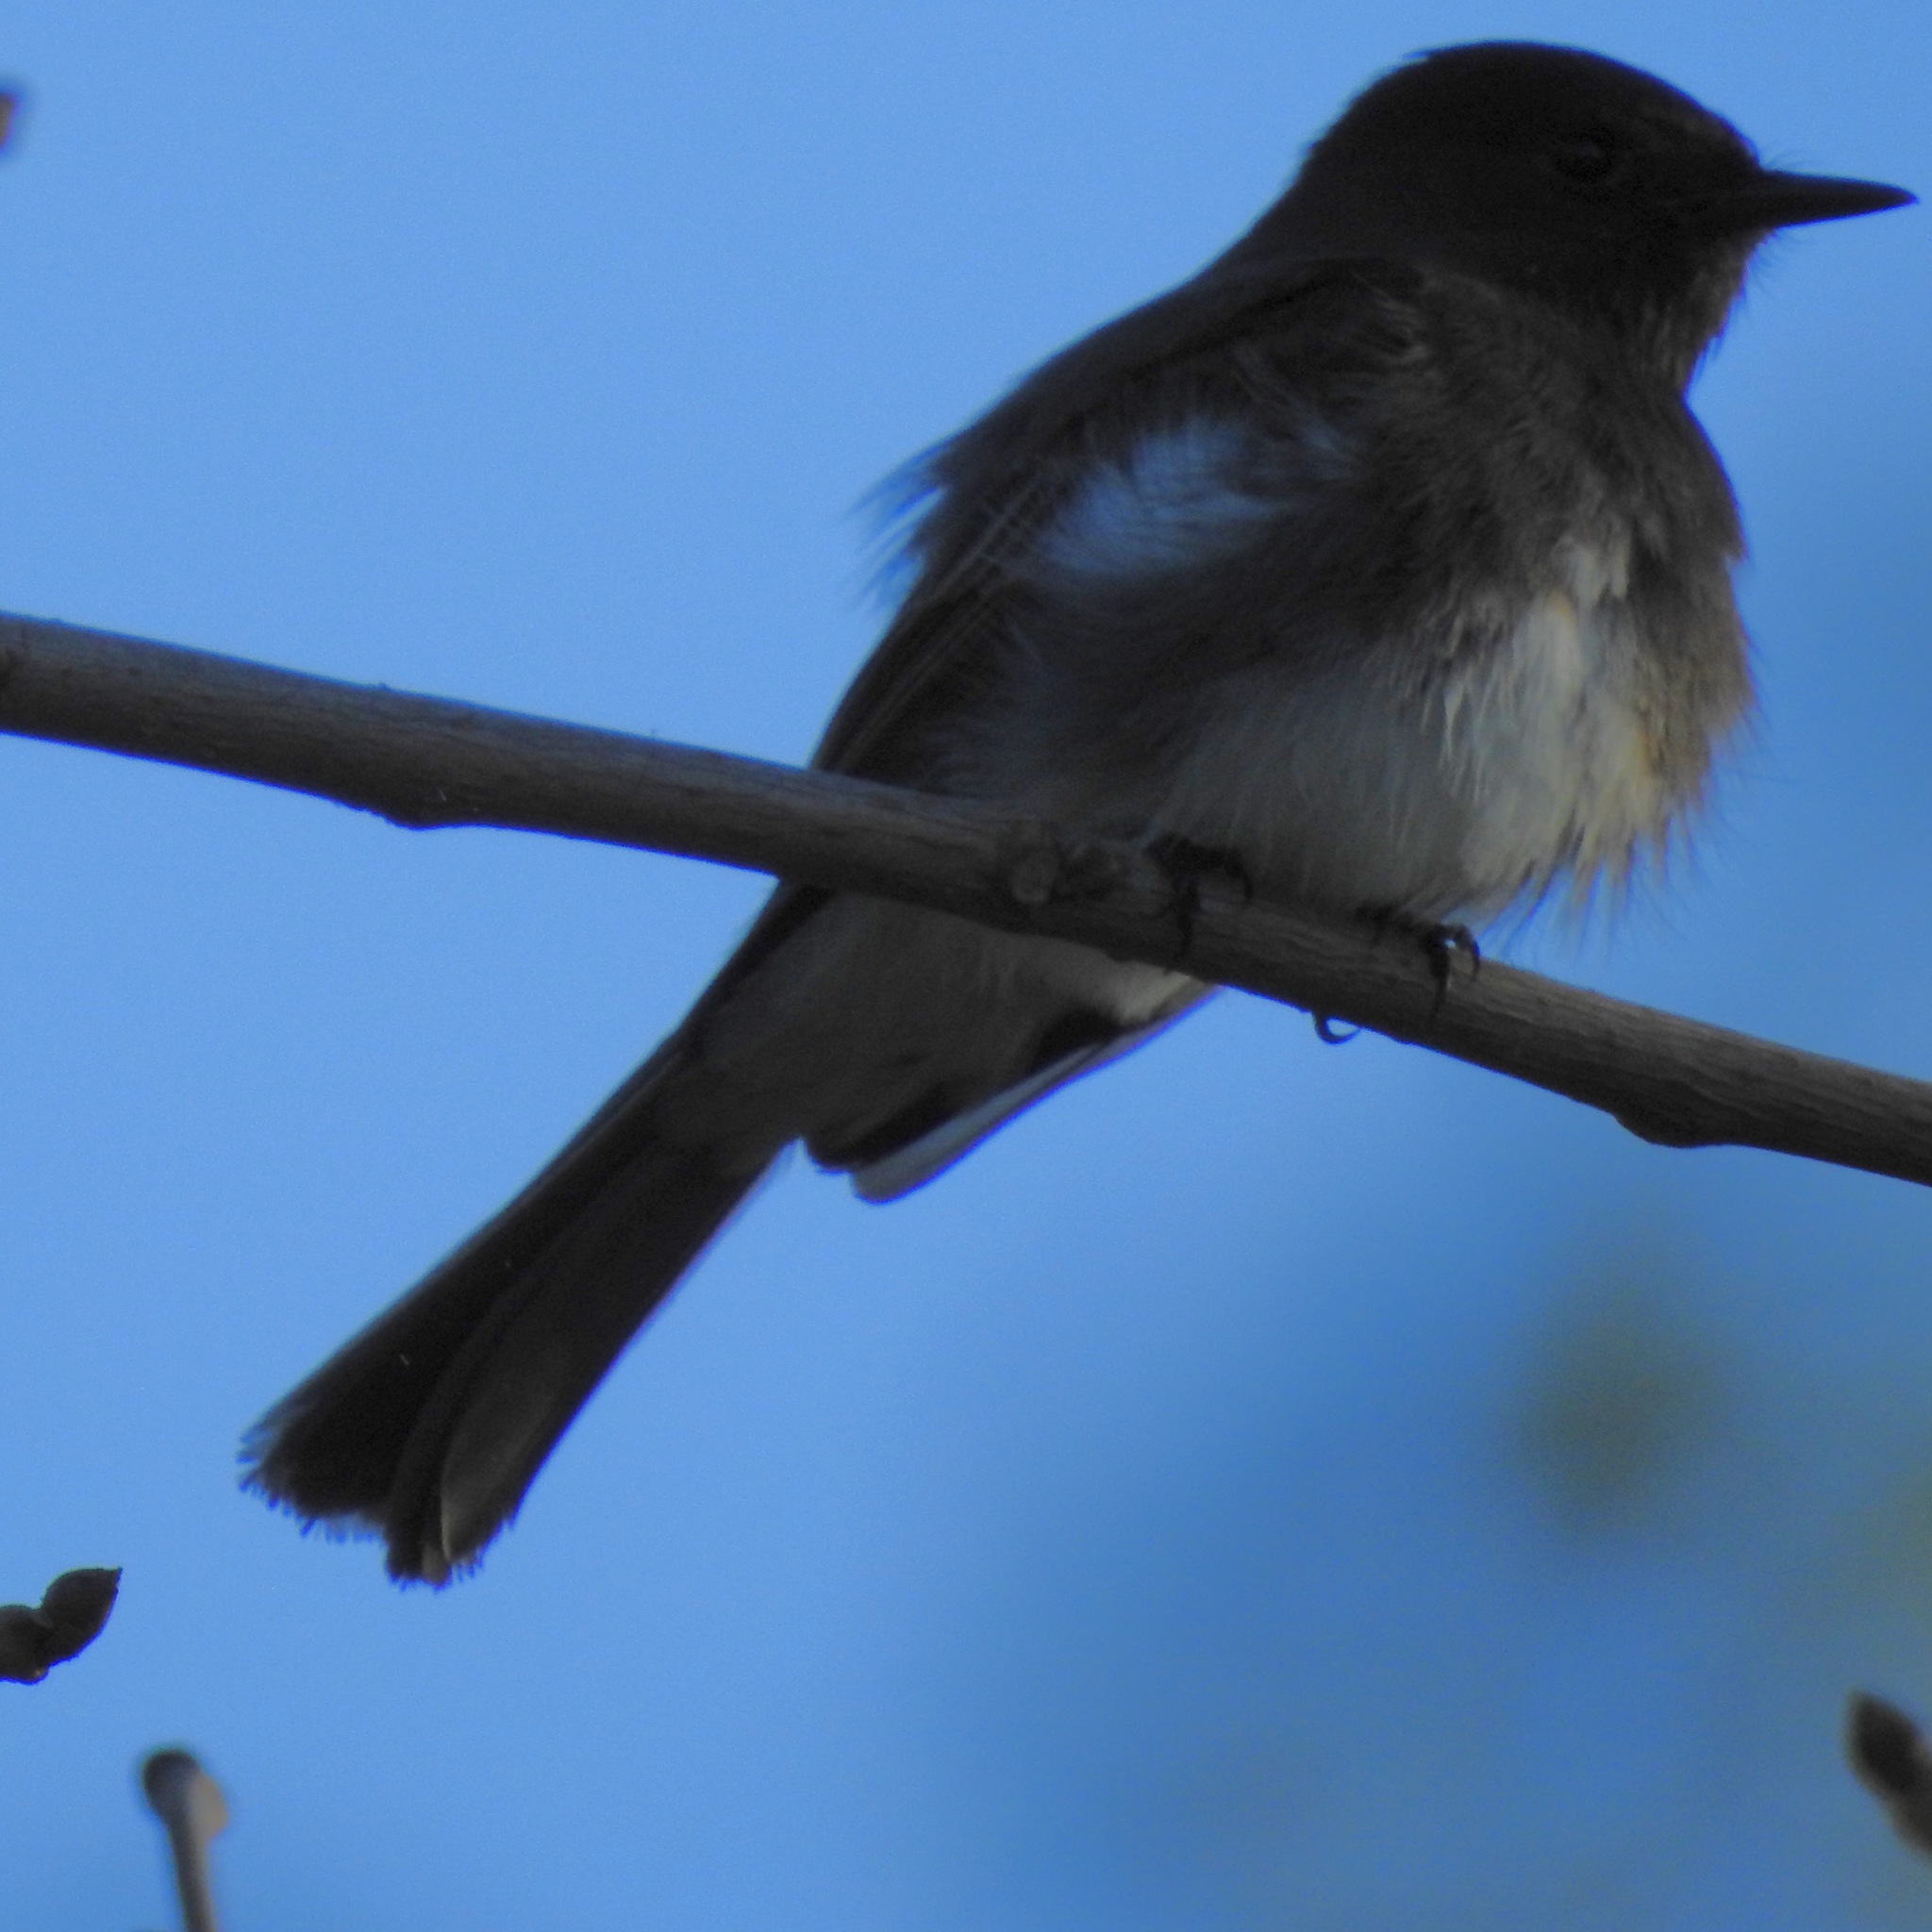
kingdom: Animalia
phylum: Chordata
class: Aves
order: Passeriformes
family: Tyrannidae
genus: Sayornis
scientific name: Sayornis nigricans
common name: Black phoebe
